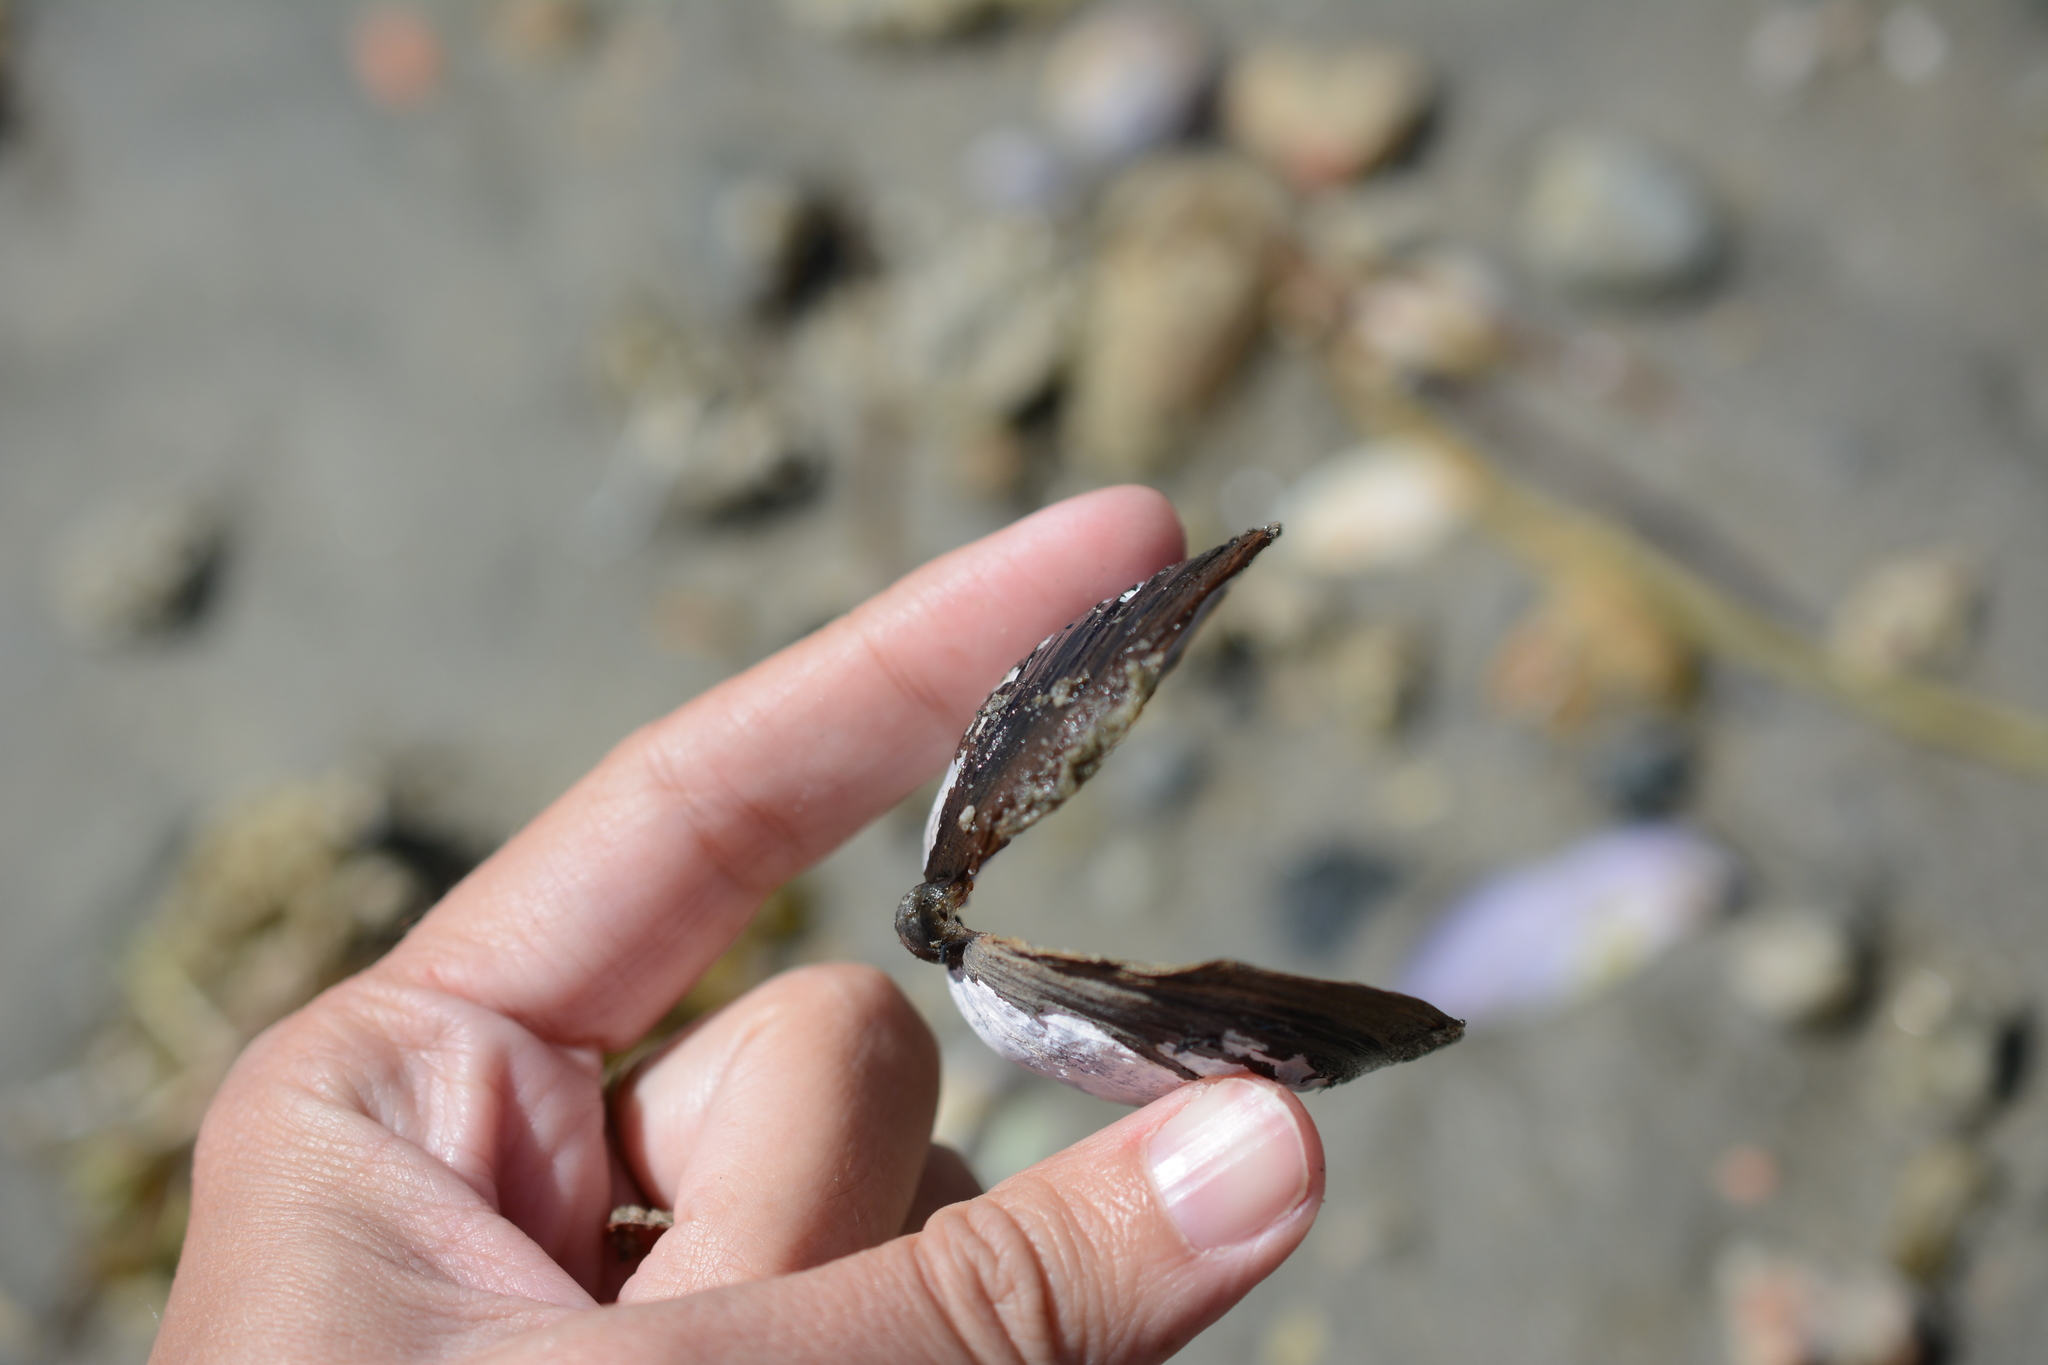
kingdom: Animalia
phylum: Mollusca
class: Bivalvia
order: Cardiida
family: Psammobiidae
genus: Nuttallia
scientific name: Nuttallia obscurata
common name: Purple mahogany-clam
